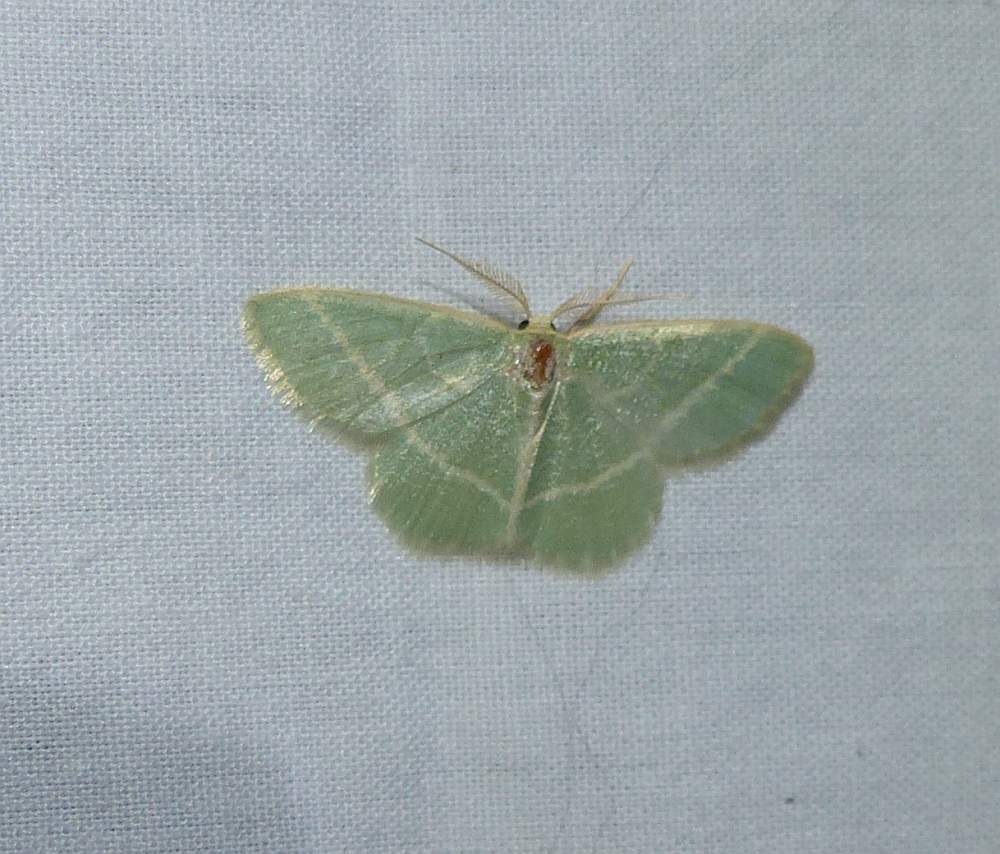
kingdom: Animalia
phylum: Arthropoda
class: Insecta
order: Lepidoptera
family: Geometridae
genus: Chlorochlamys
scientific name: Chlorochlamys chloroleucaria
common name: Blackberry looper
